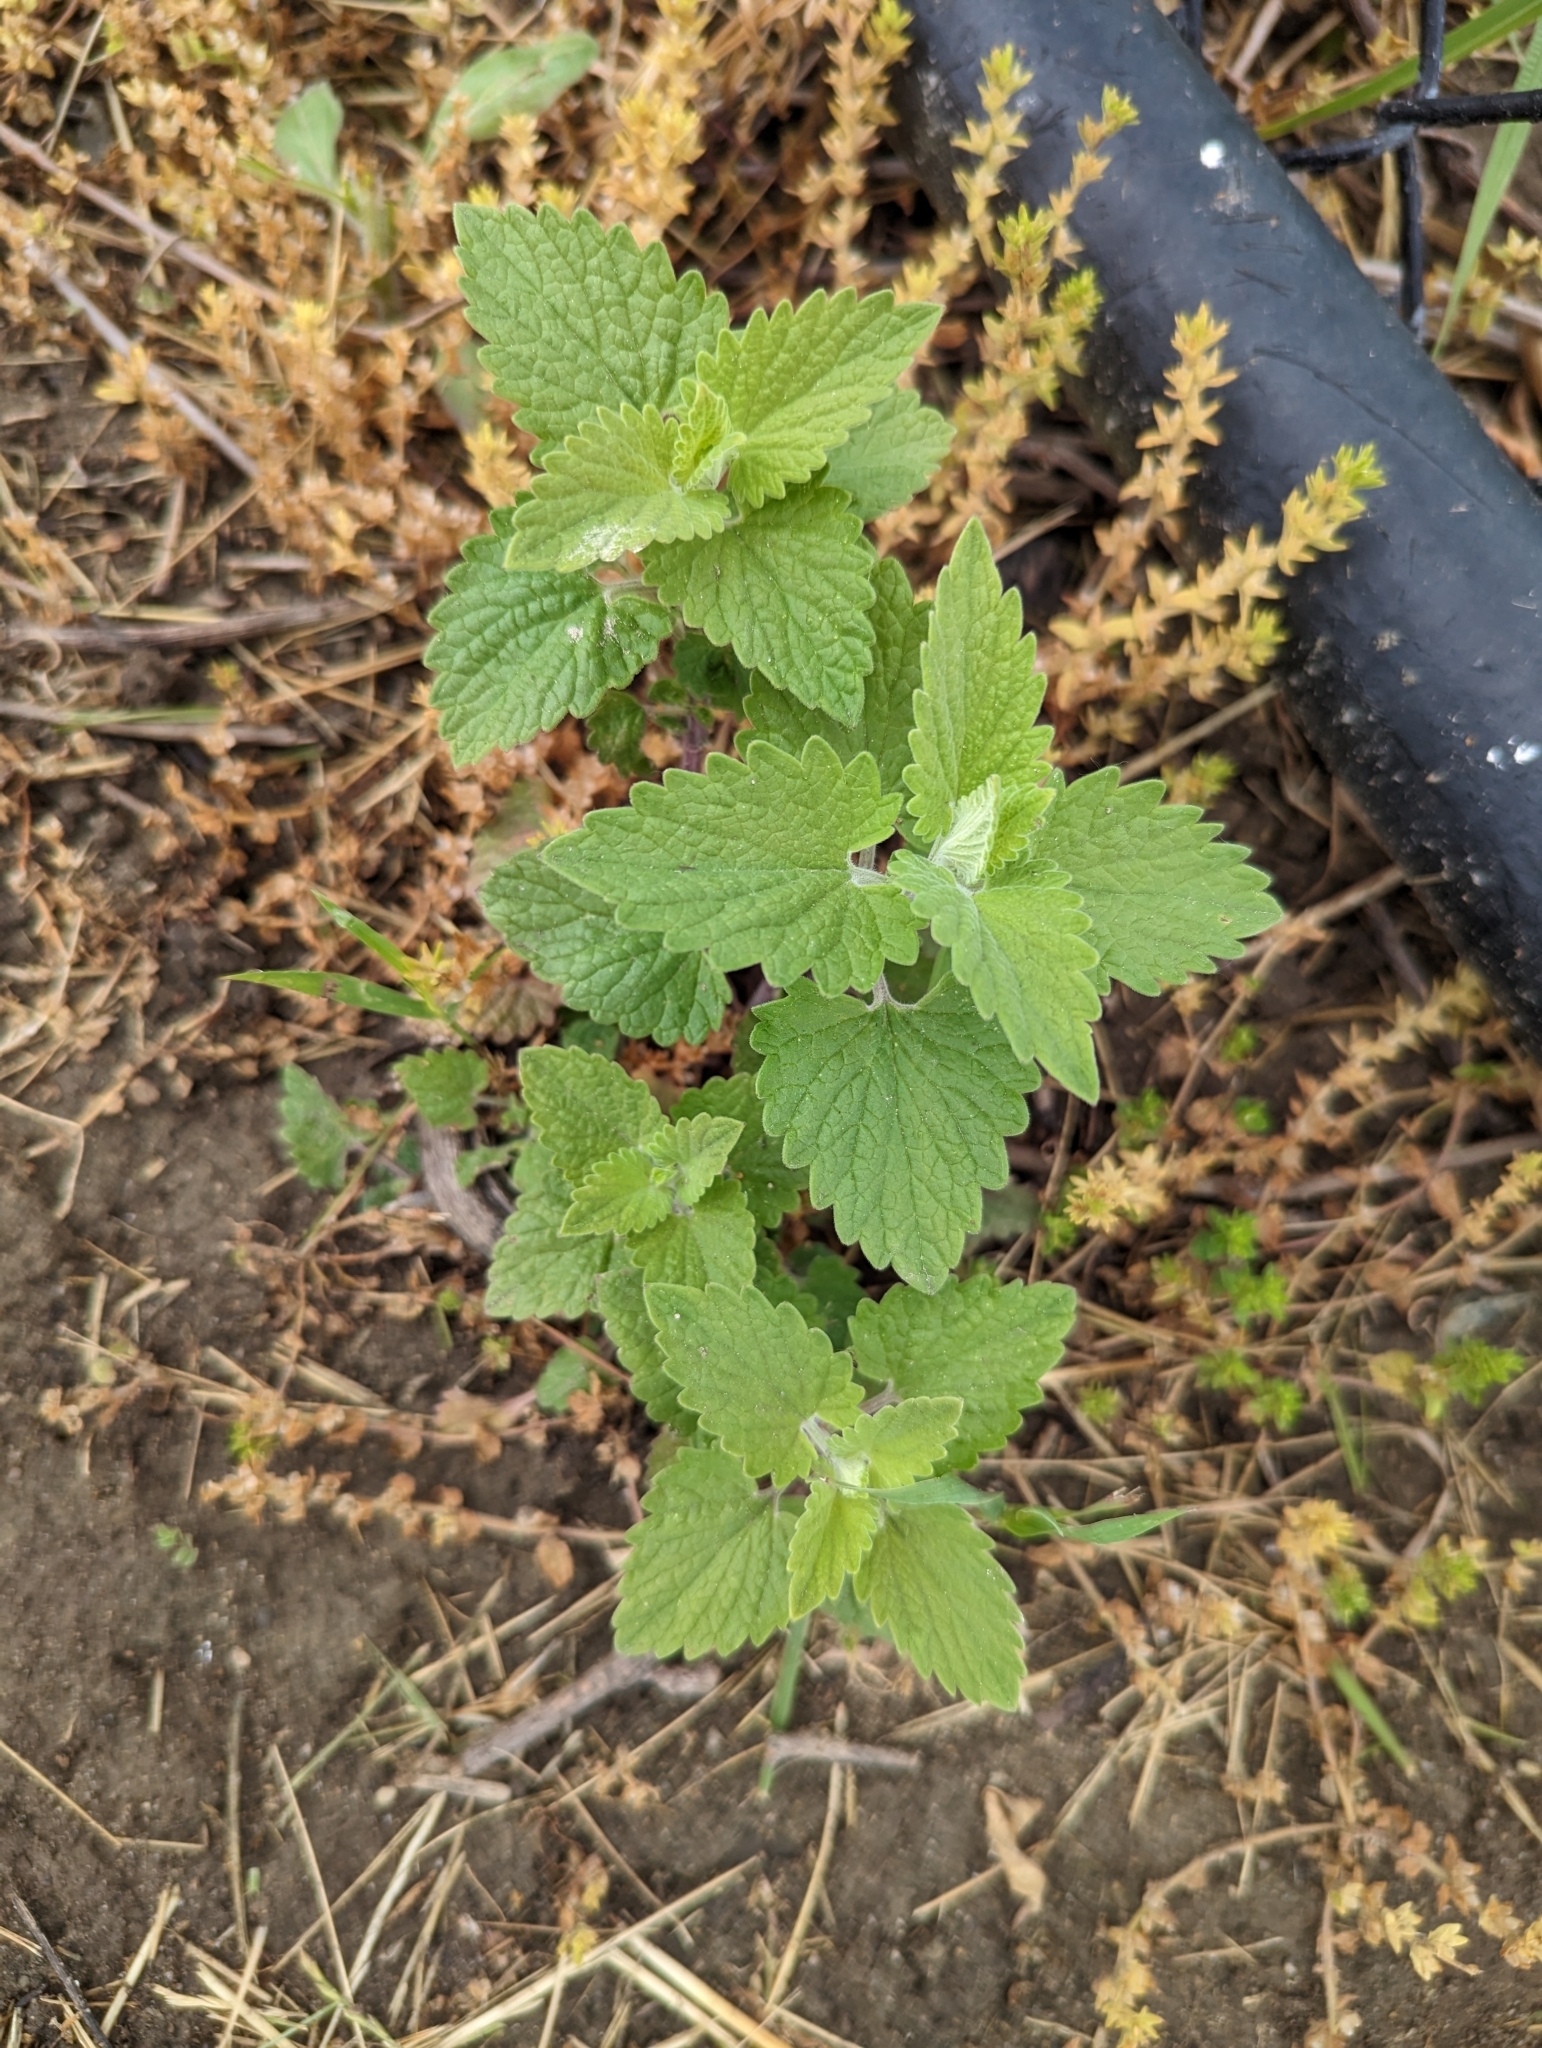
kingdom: Plantae
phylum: Tracheophyta
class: Magnoliopsida
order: Lamiales
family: Lamiaceae
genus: Nepeta
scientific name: Nepeta cataria
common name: Catnip
